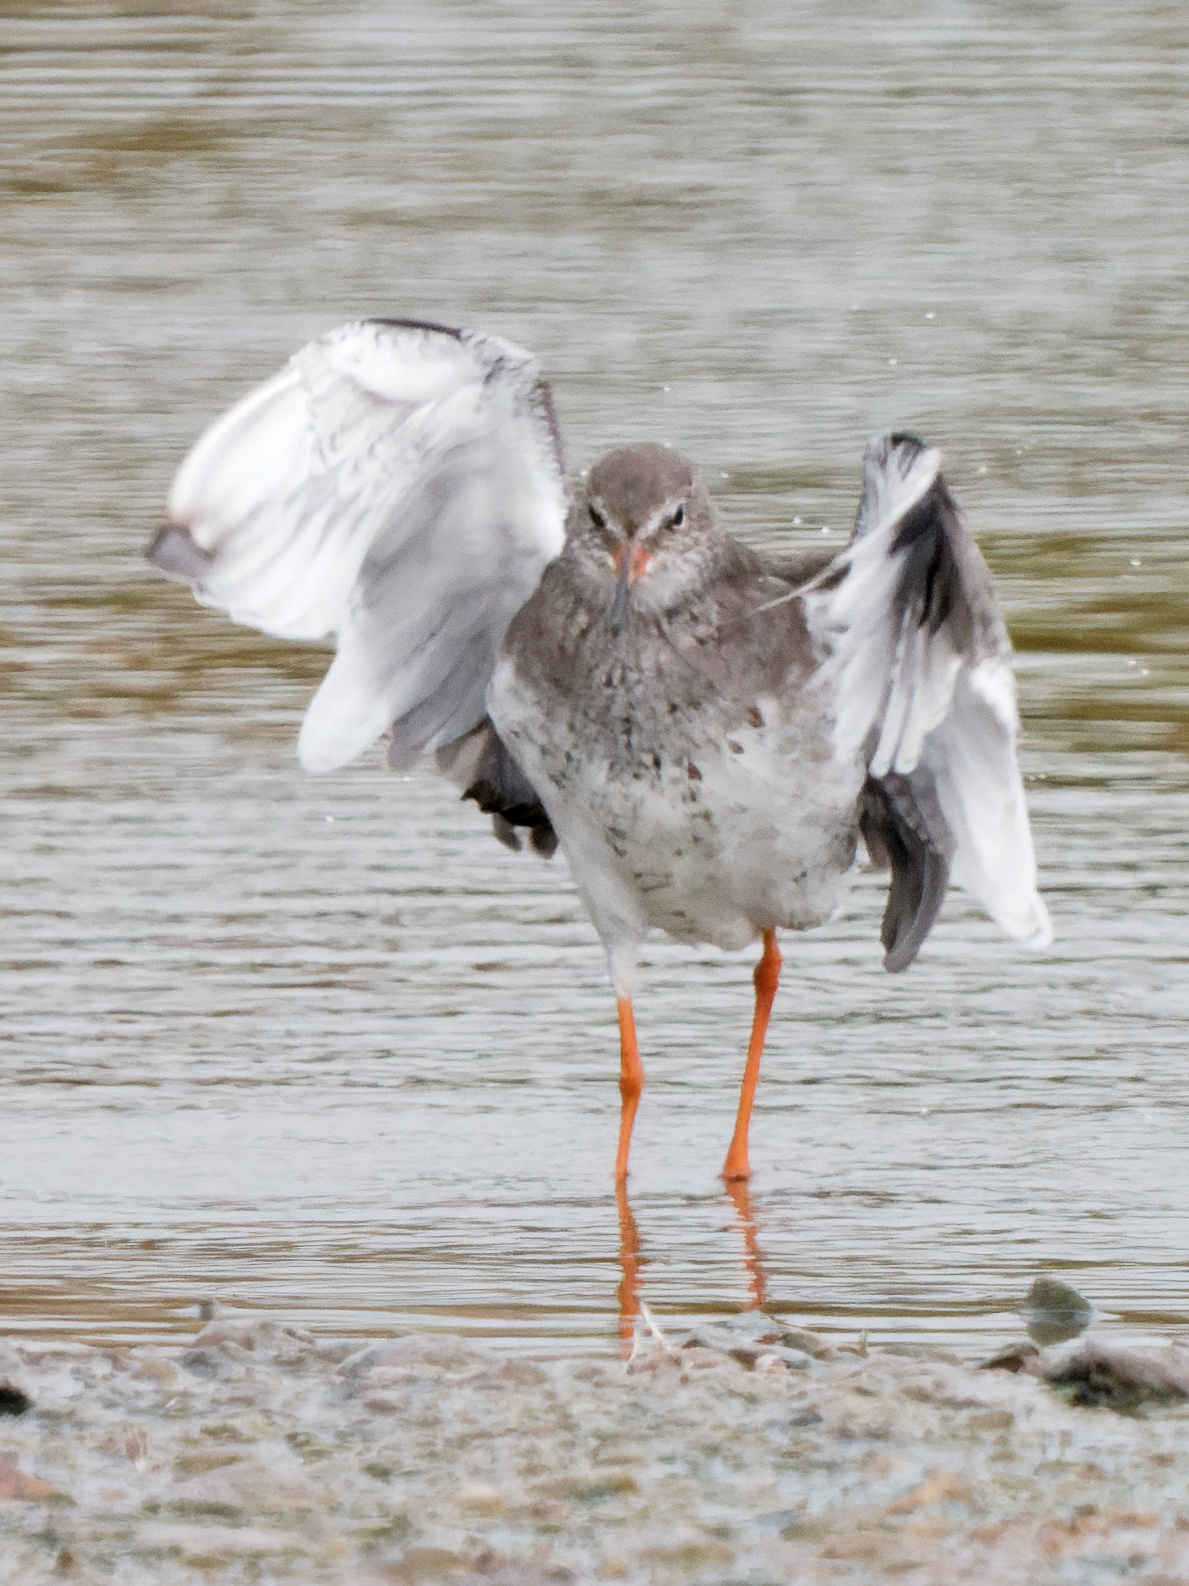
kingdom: Animalia
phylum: Chordata
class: Aves
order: Charadriiformes
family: Scolopacidae
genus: Tringa
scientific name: Tringa erythropus
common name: Spotted redshank
